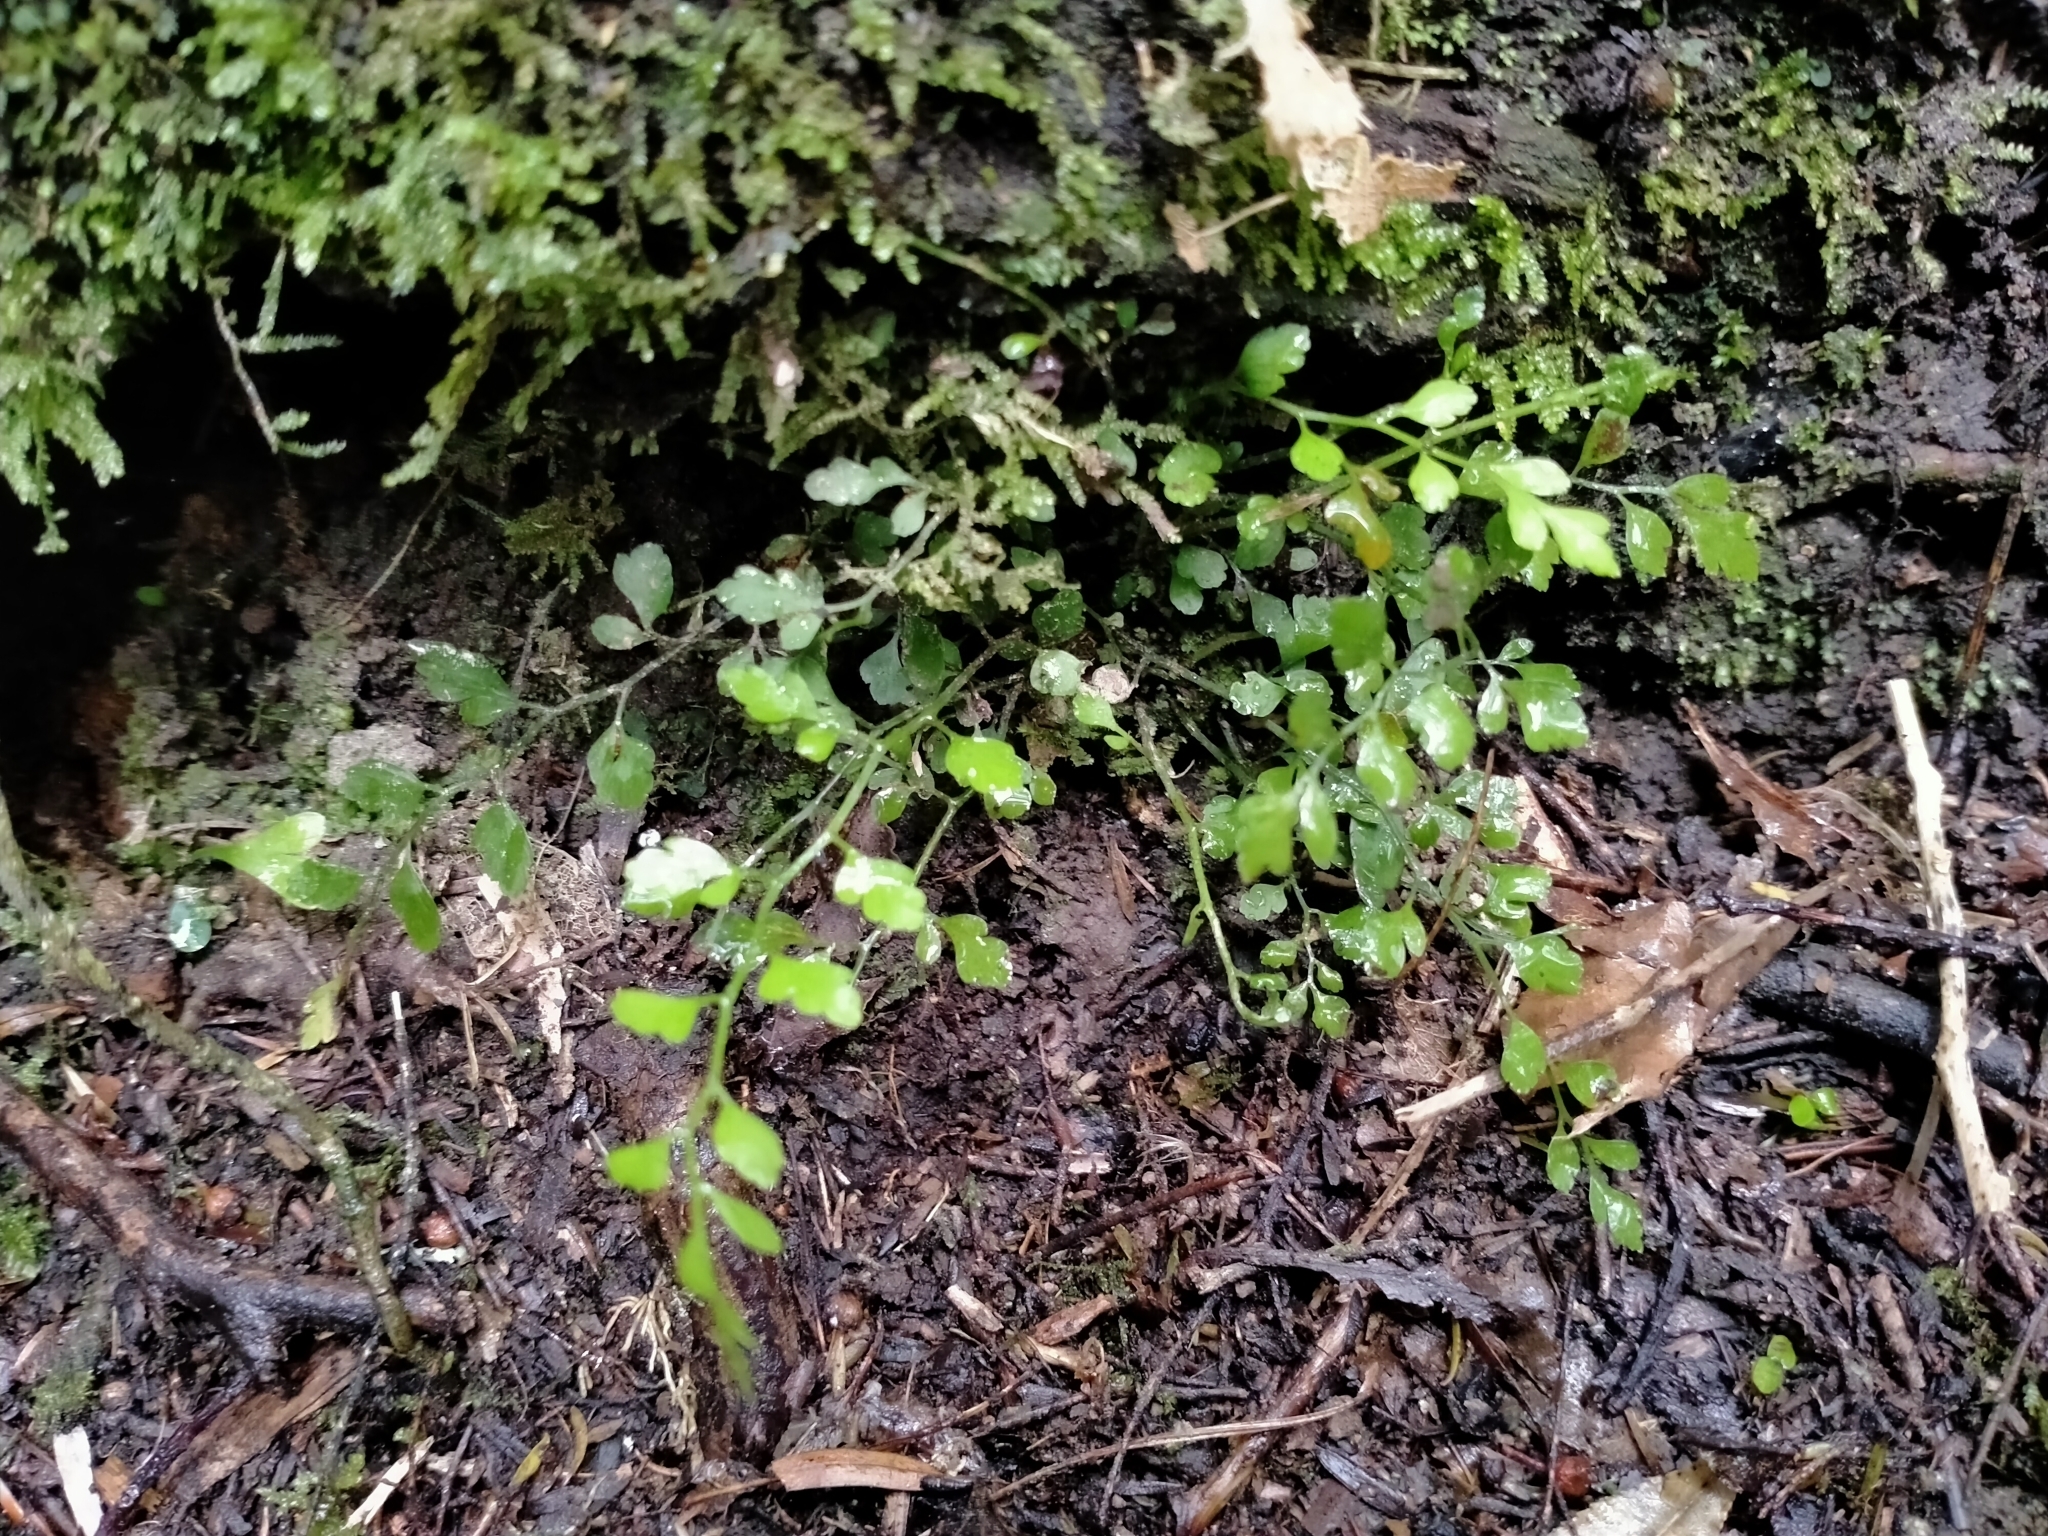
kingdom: Plantae
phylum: Tracheophyta
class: Polypodiopsida
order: Polypodiales
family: Aspleniaceae
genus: Asplenium
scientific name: Asplenium hookerianum
